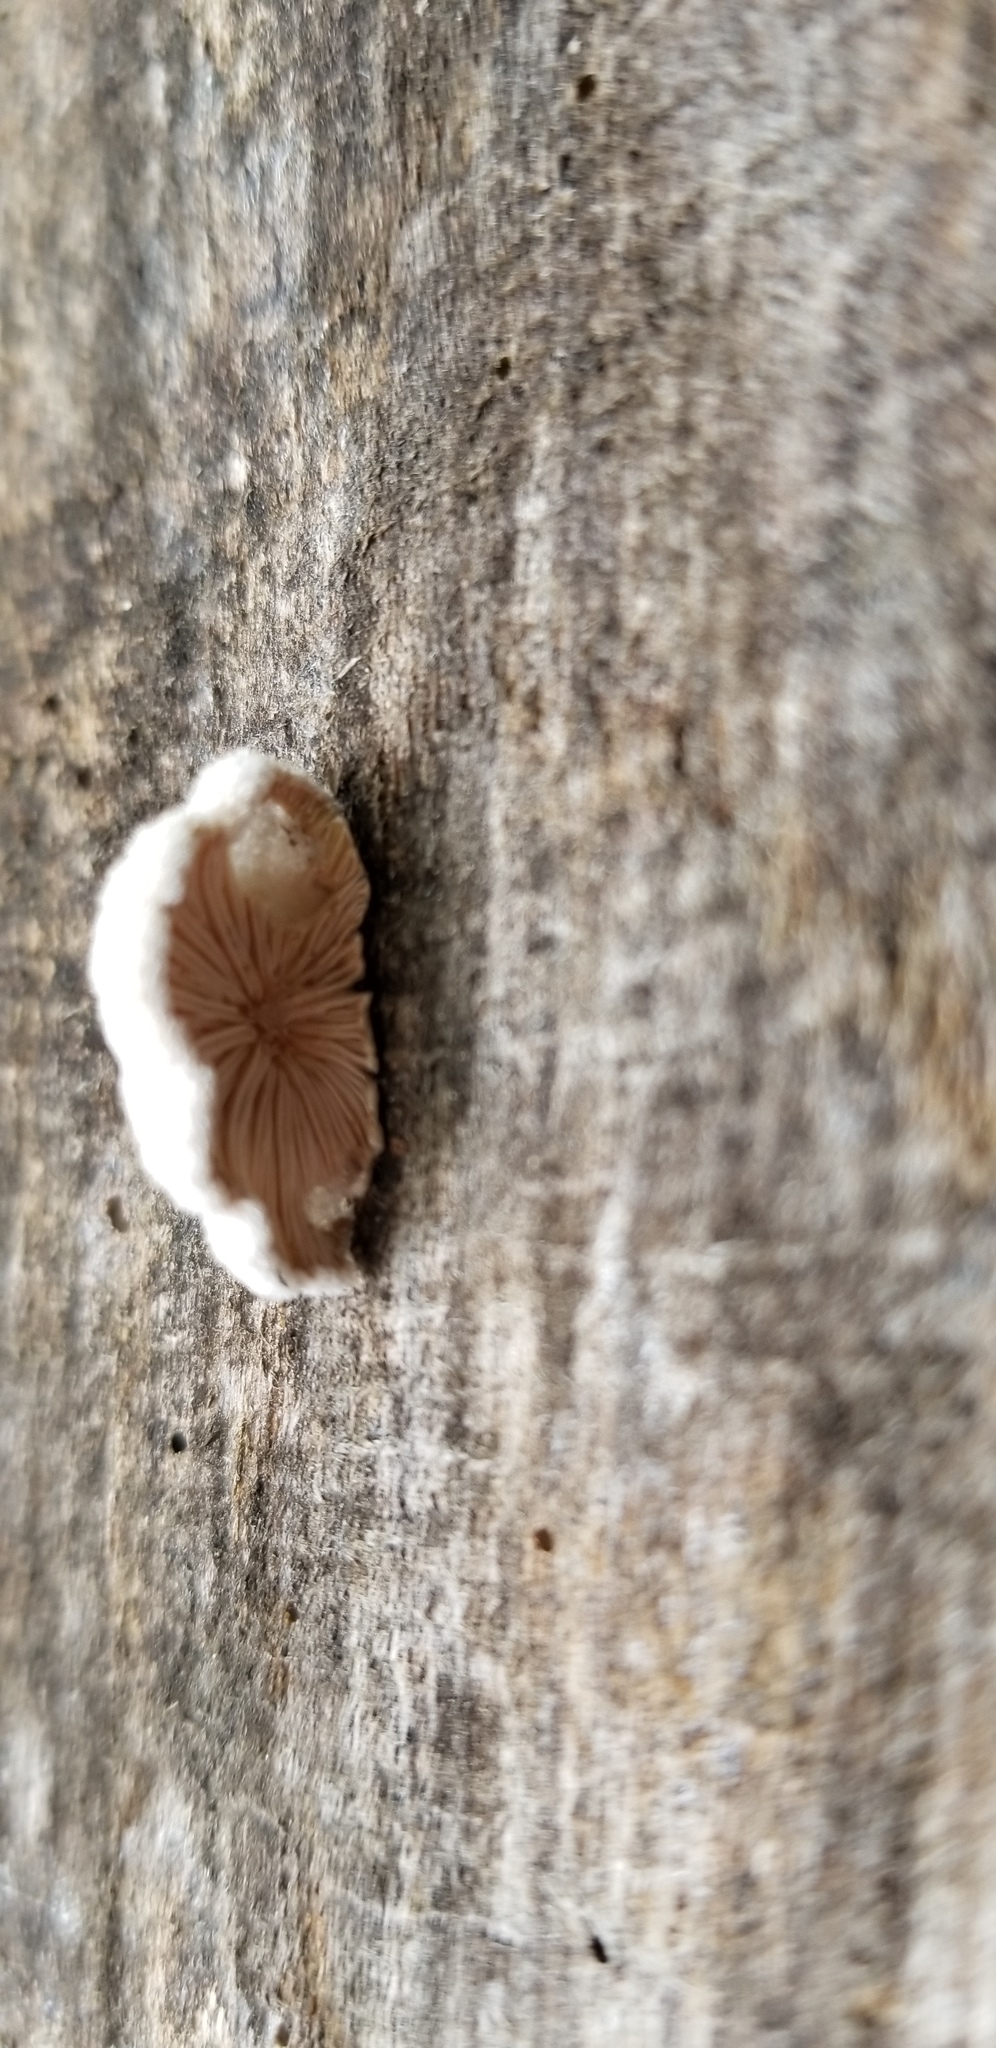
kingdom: Fungi
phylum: Basidiomycota
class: Agaricomycetes
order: Agaricales
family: Schizophyllaceae
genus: Schizophyllum
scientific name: Schizophyllum commune
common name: Common porecrust
